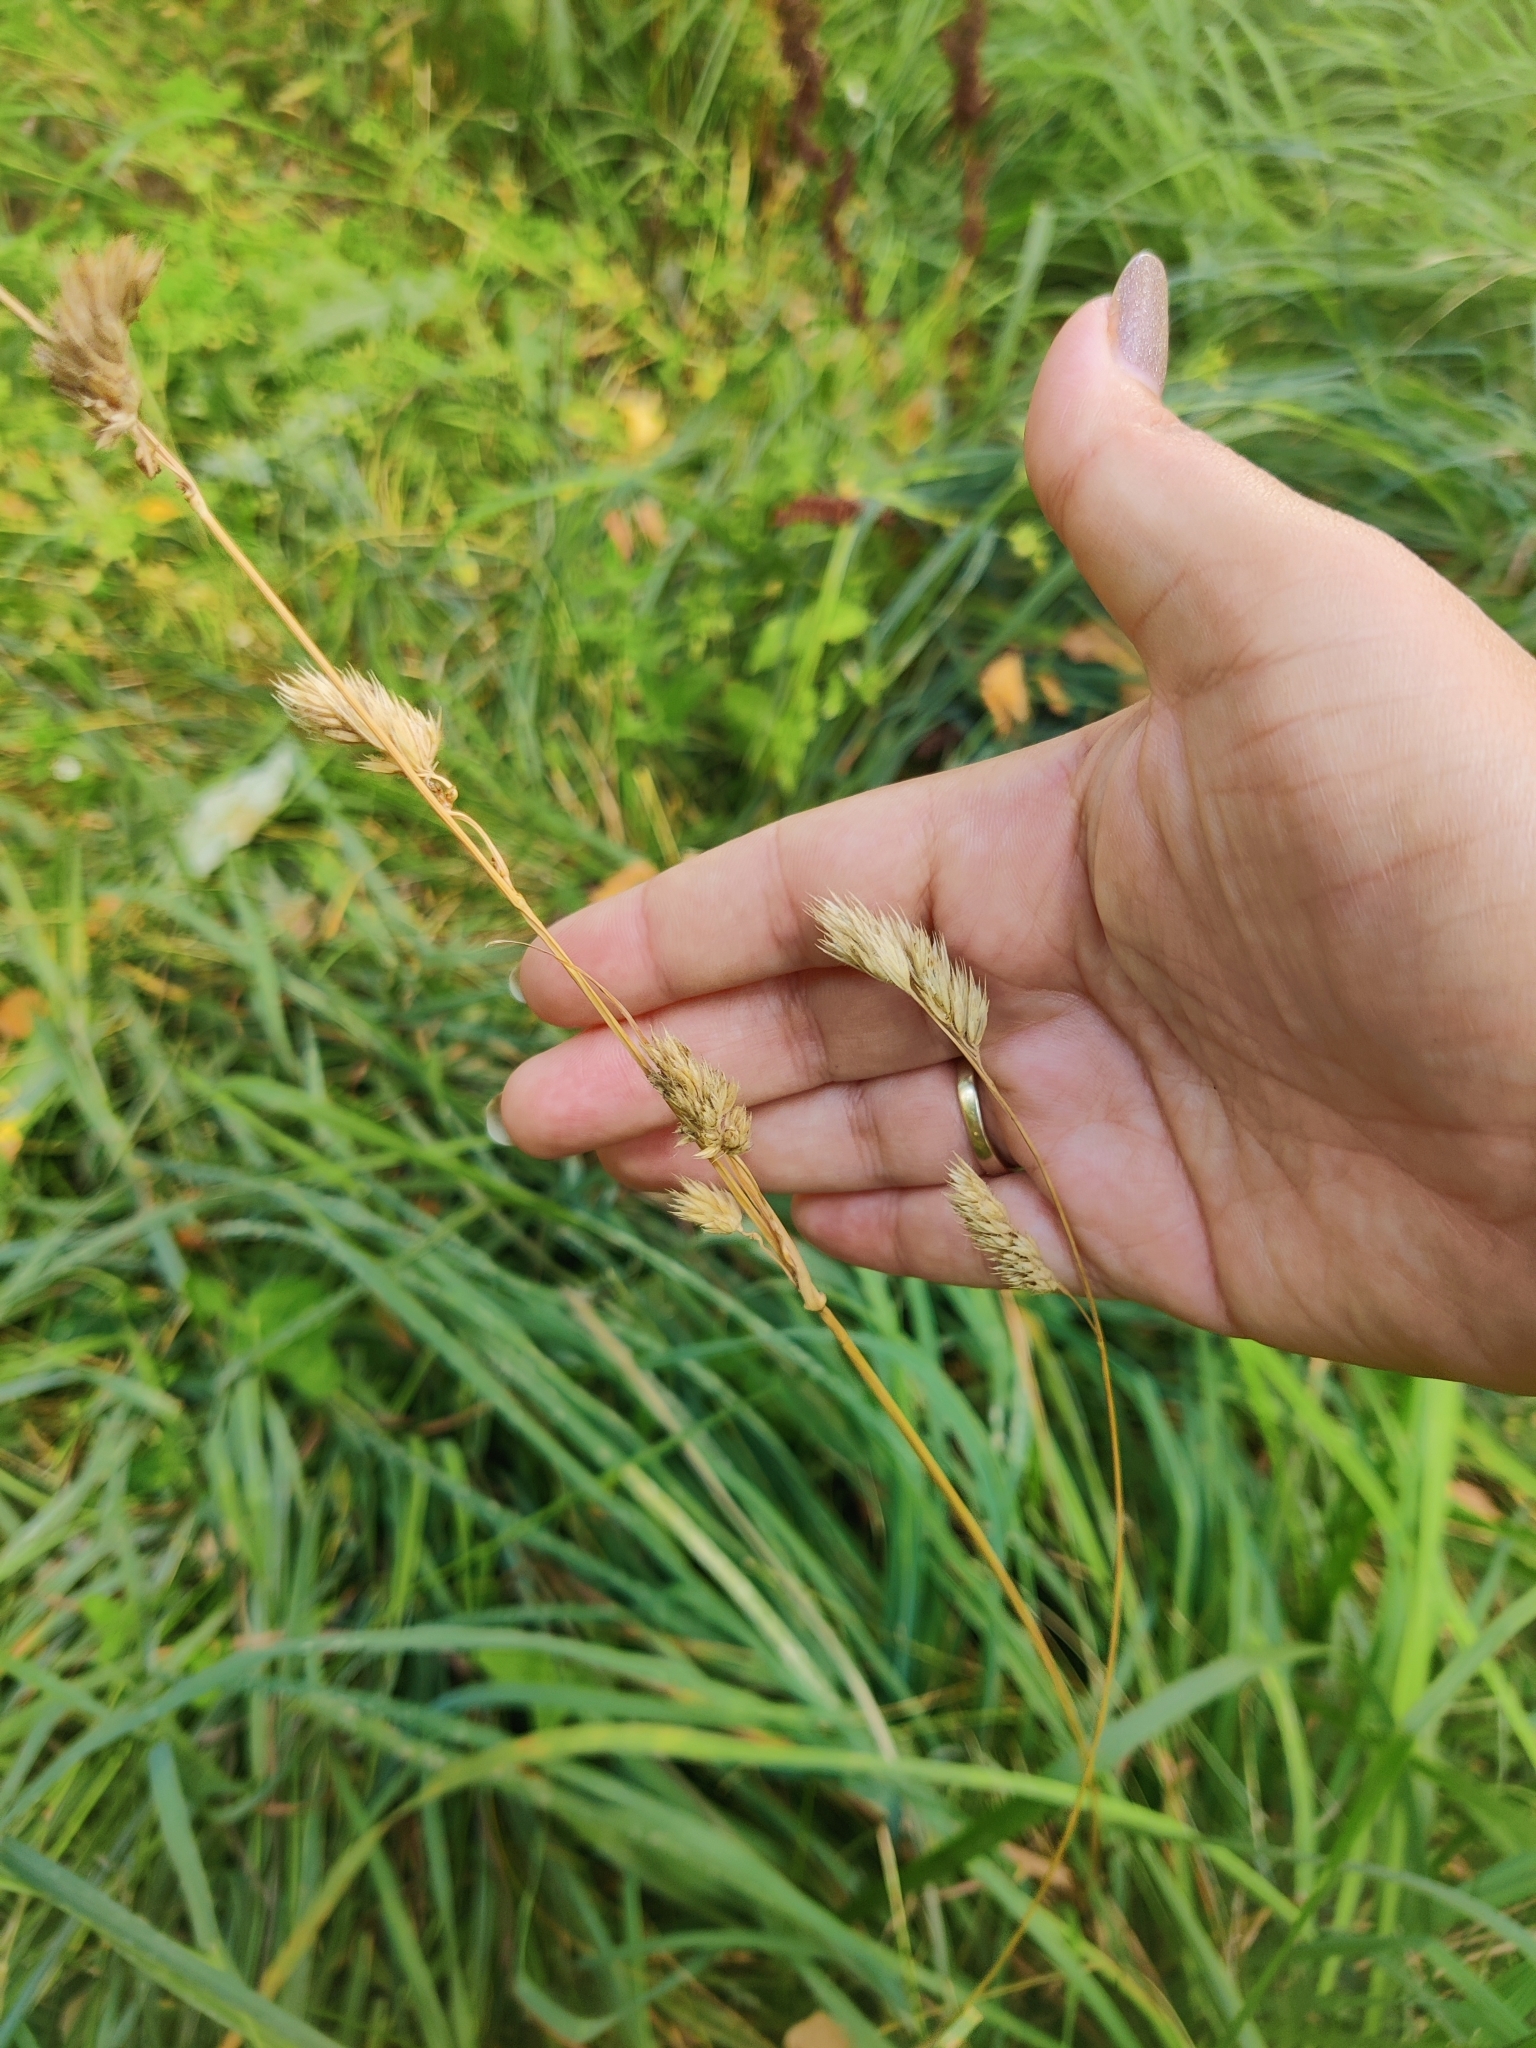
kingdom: Plantae
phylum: Tracheophyta
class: Liliopsida
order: Poales
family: Poaceae
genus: Dactylis
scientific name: Dactylis glomerata
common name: Orchardgrass
